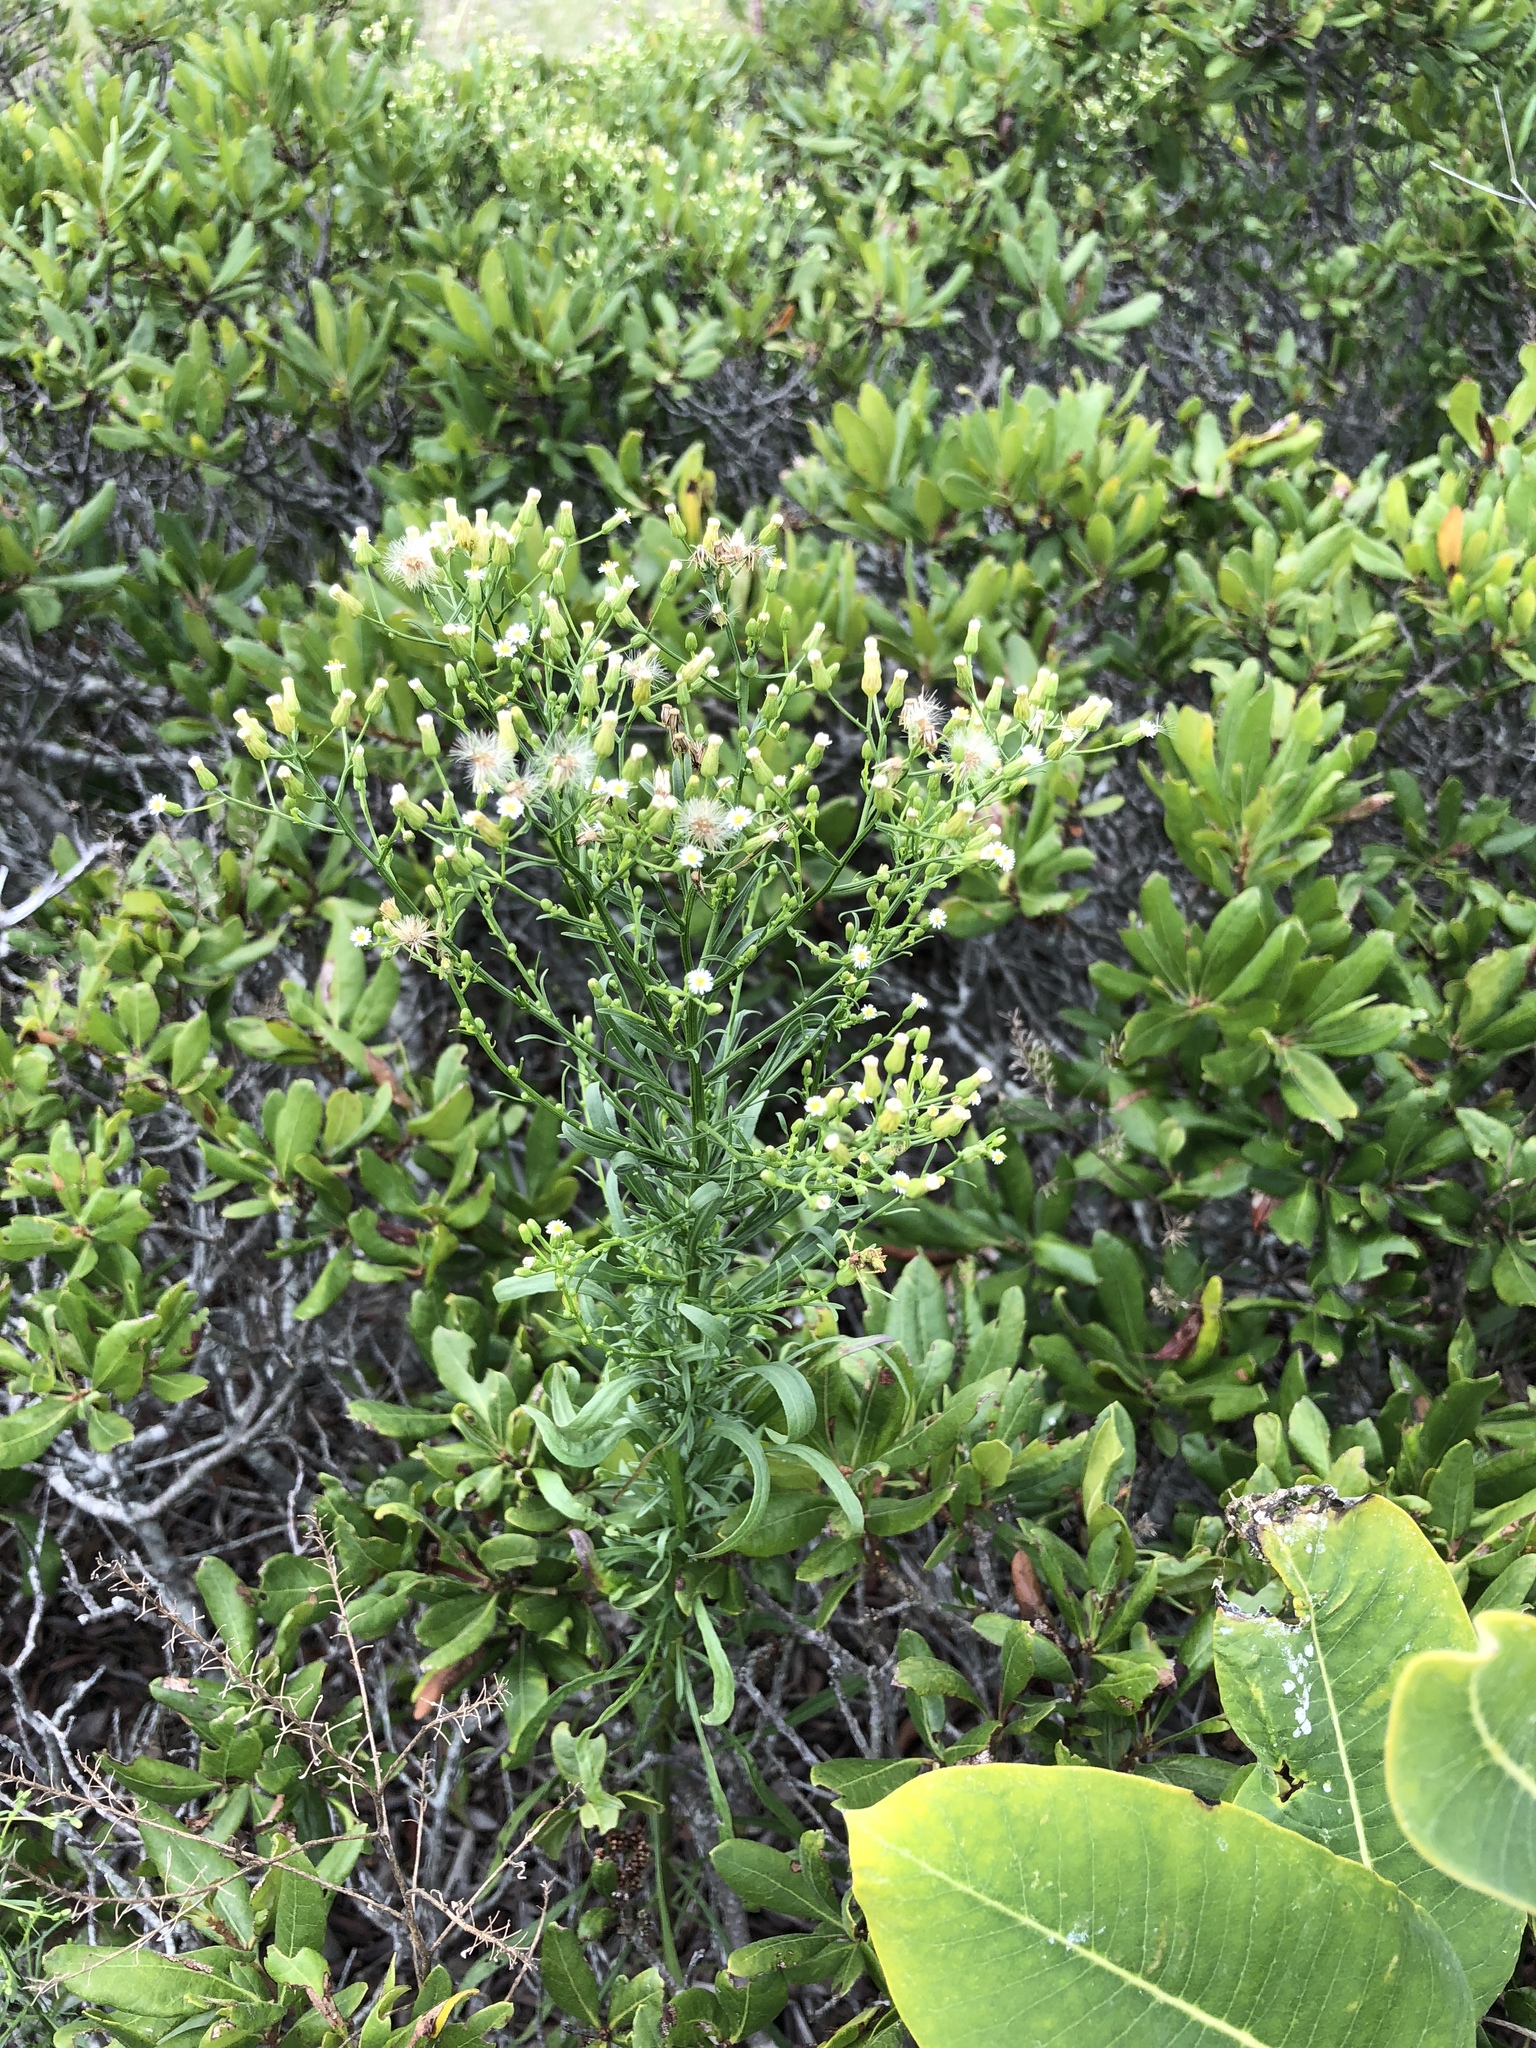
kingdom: Plantae
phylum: Tracheophyta
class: Magnoliopsida
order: Asterales
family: Asteraceae
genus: Erigeron
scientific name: Erigeron canadensis
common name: Canadian fleabane
